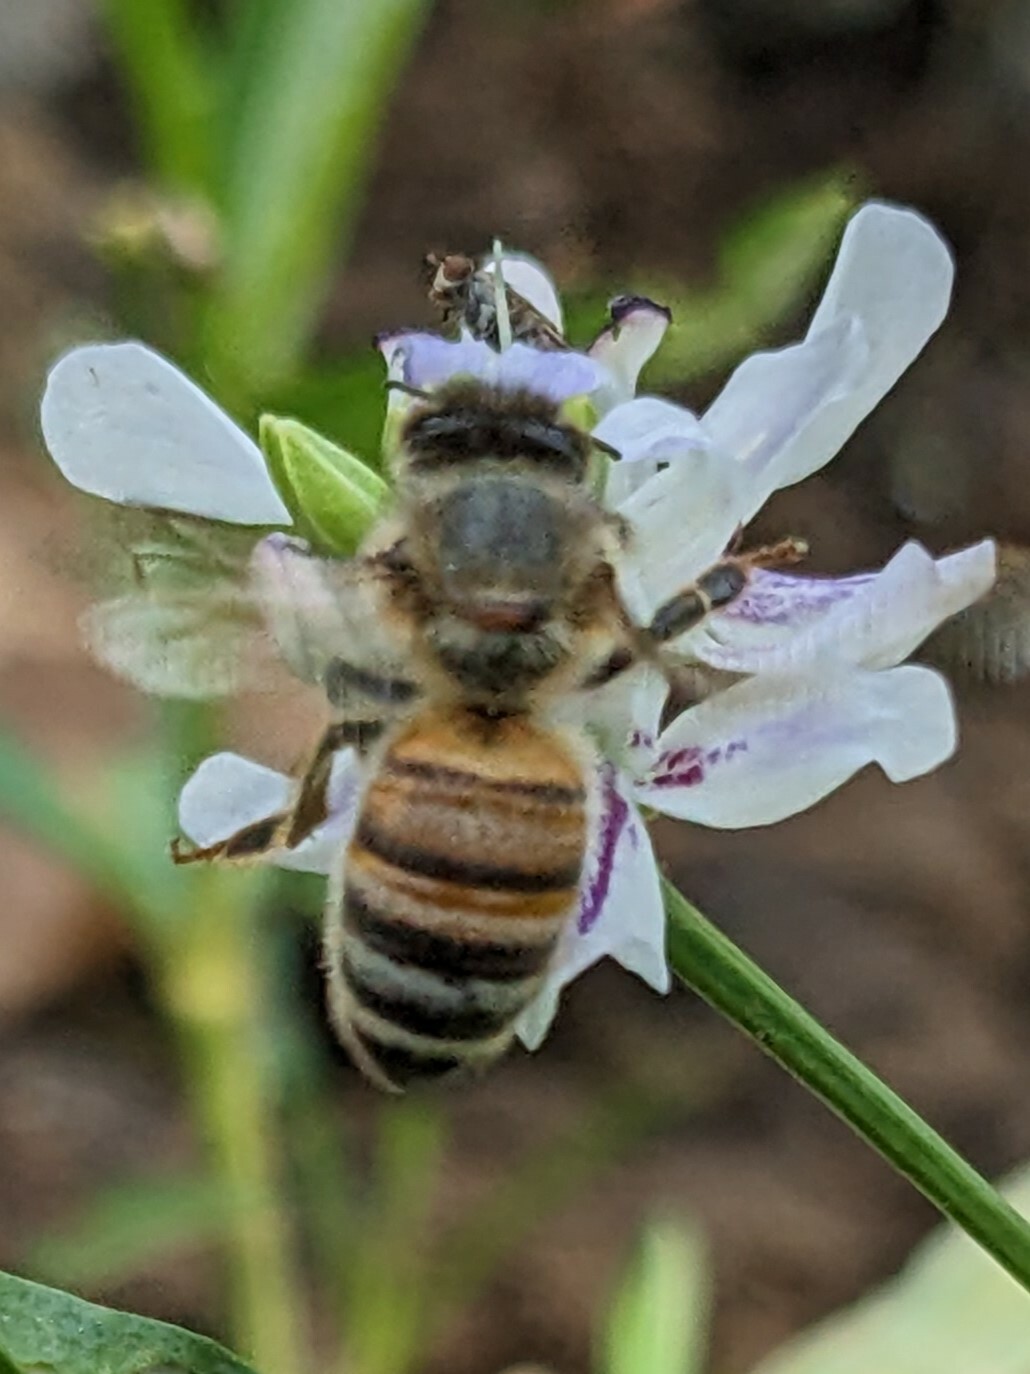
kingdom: Animalia
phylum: Arthropoda
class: Insecta
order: Hymenoptera
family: Apidae
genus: Apis
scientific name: Apis mellifera
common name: Honey bee
